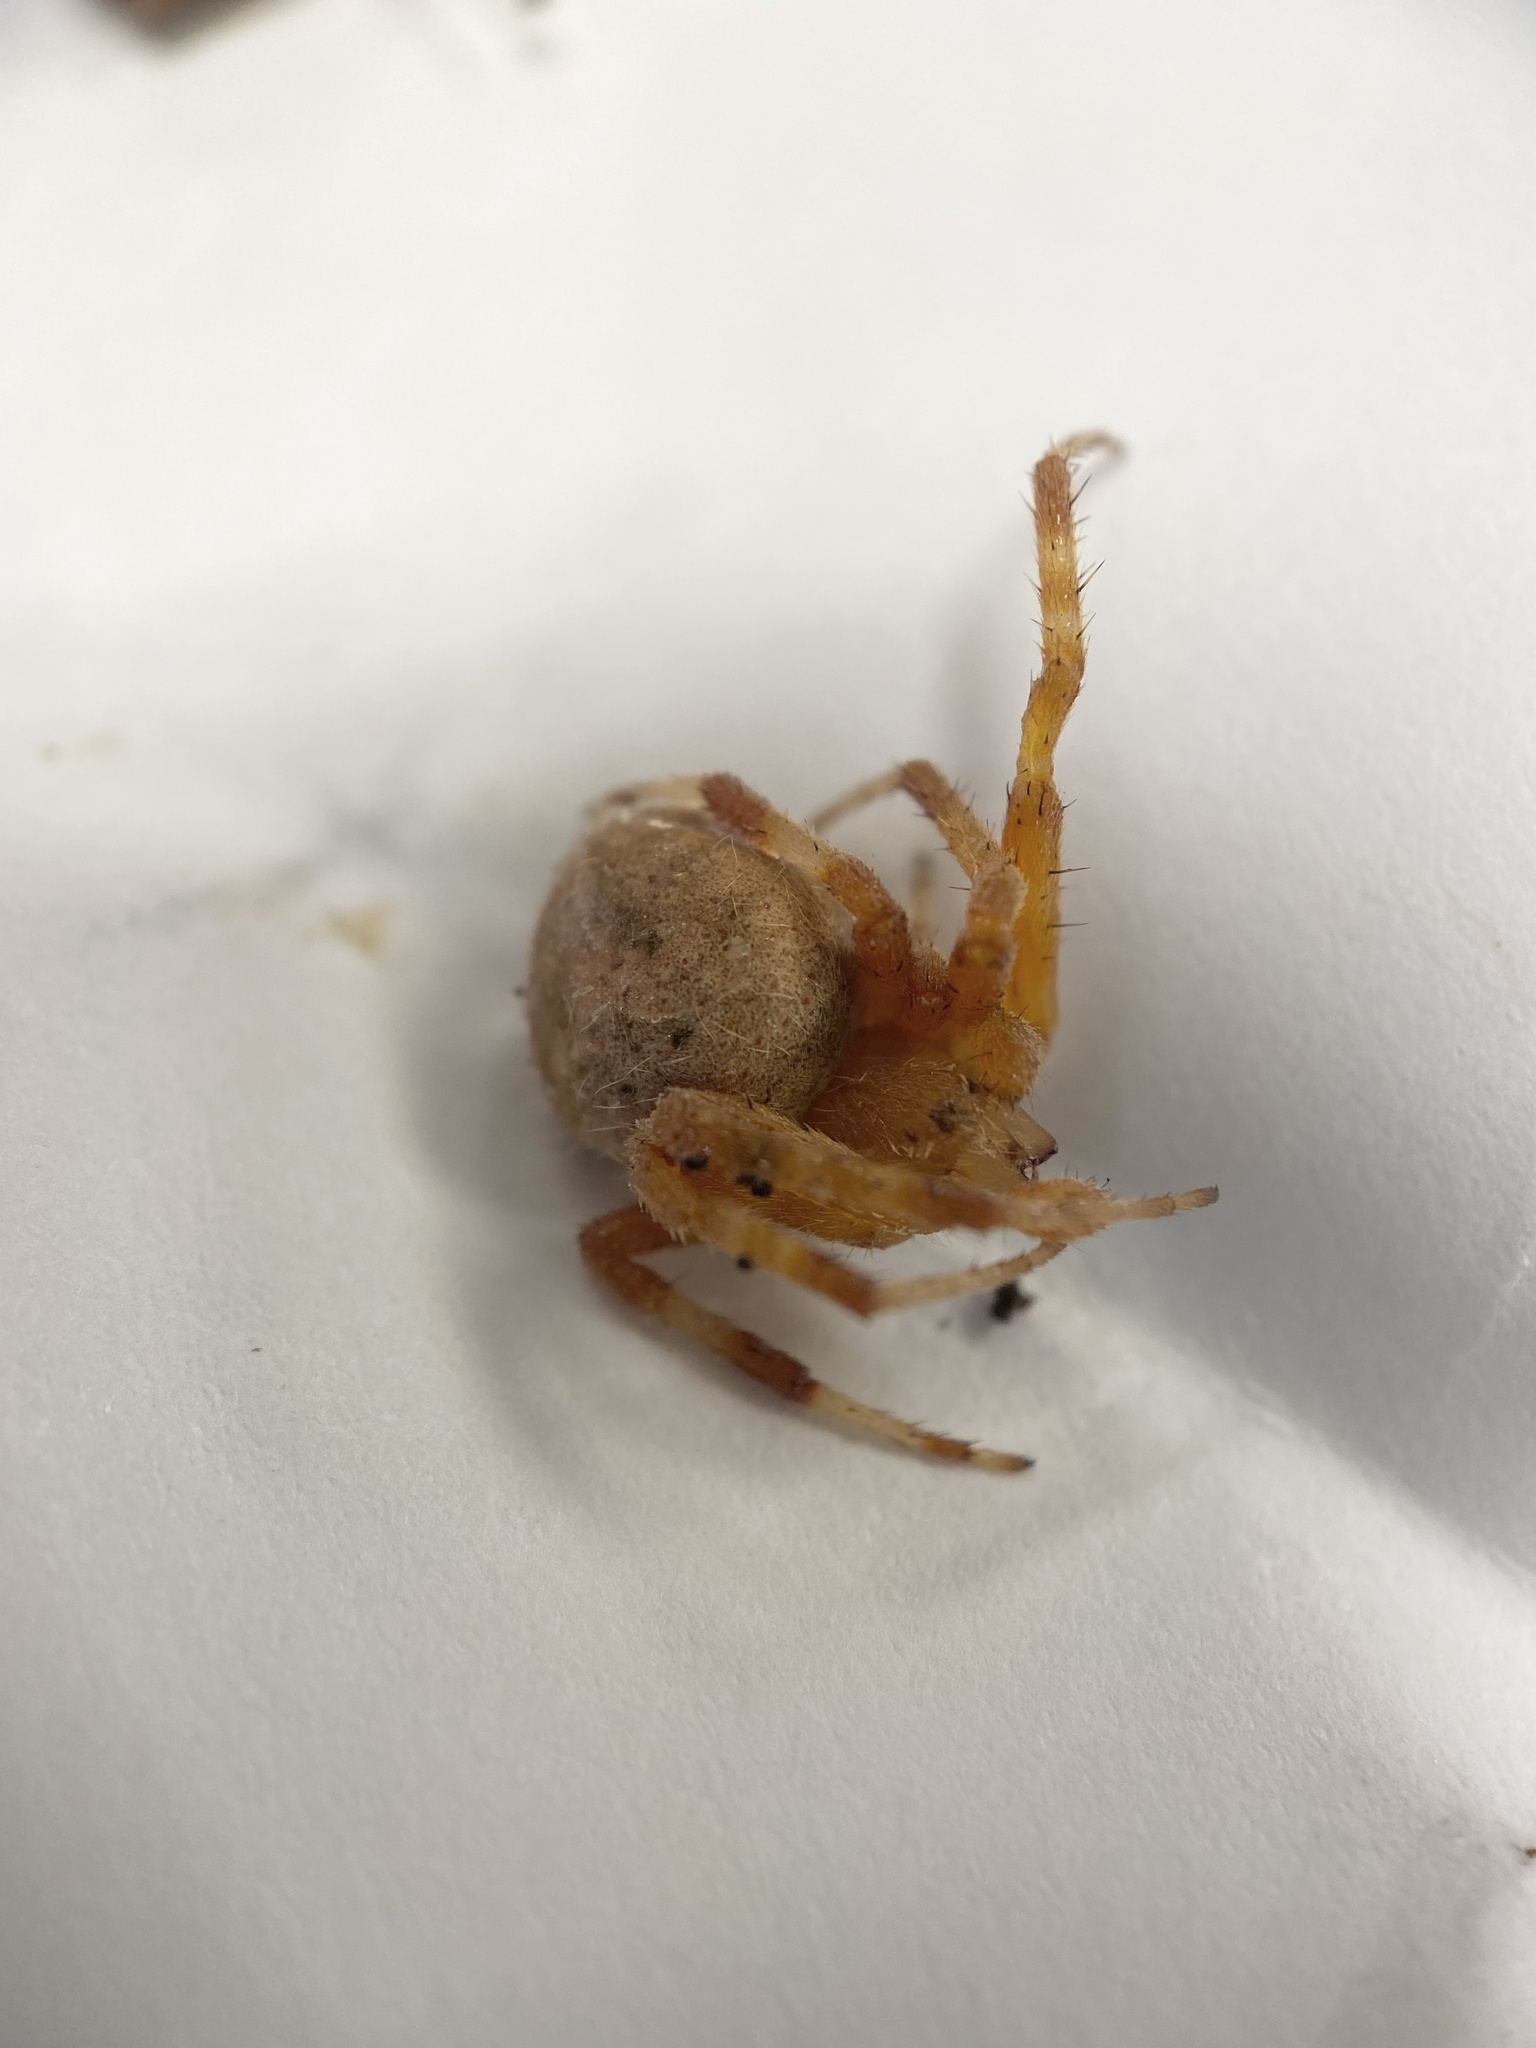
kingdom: Animalia
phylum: Arthropoda
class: Arachnida
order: Araneae
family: Araneidae
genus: Neoscona
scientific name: Neoscona crucifera
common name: Spotted orbweaver
